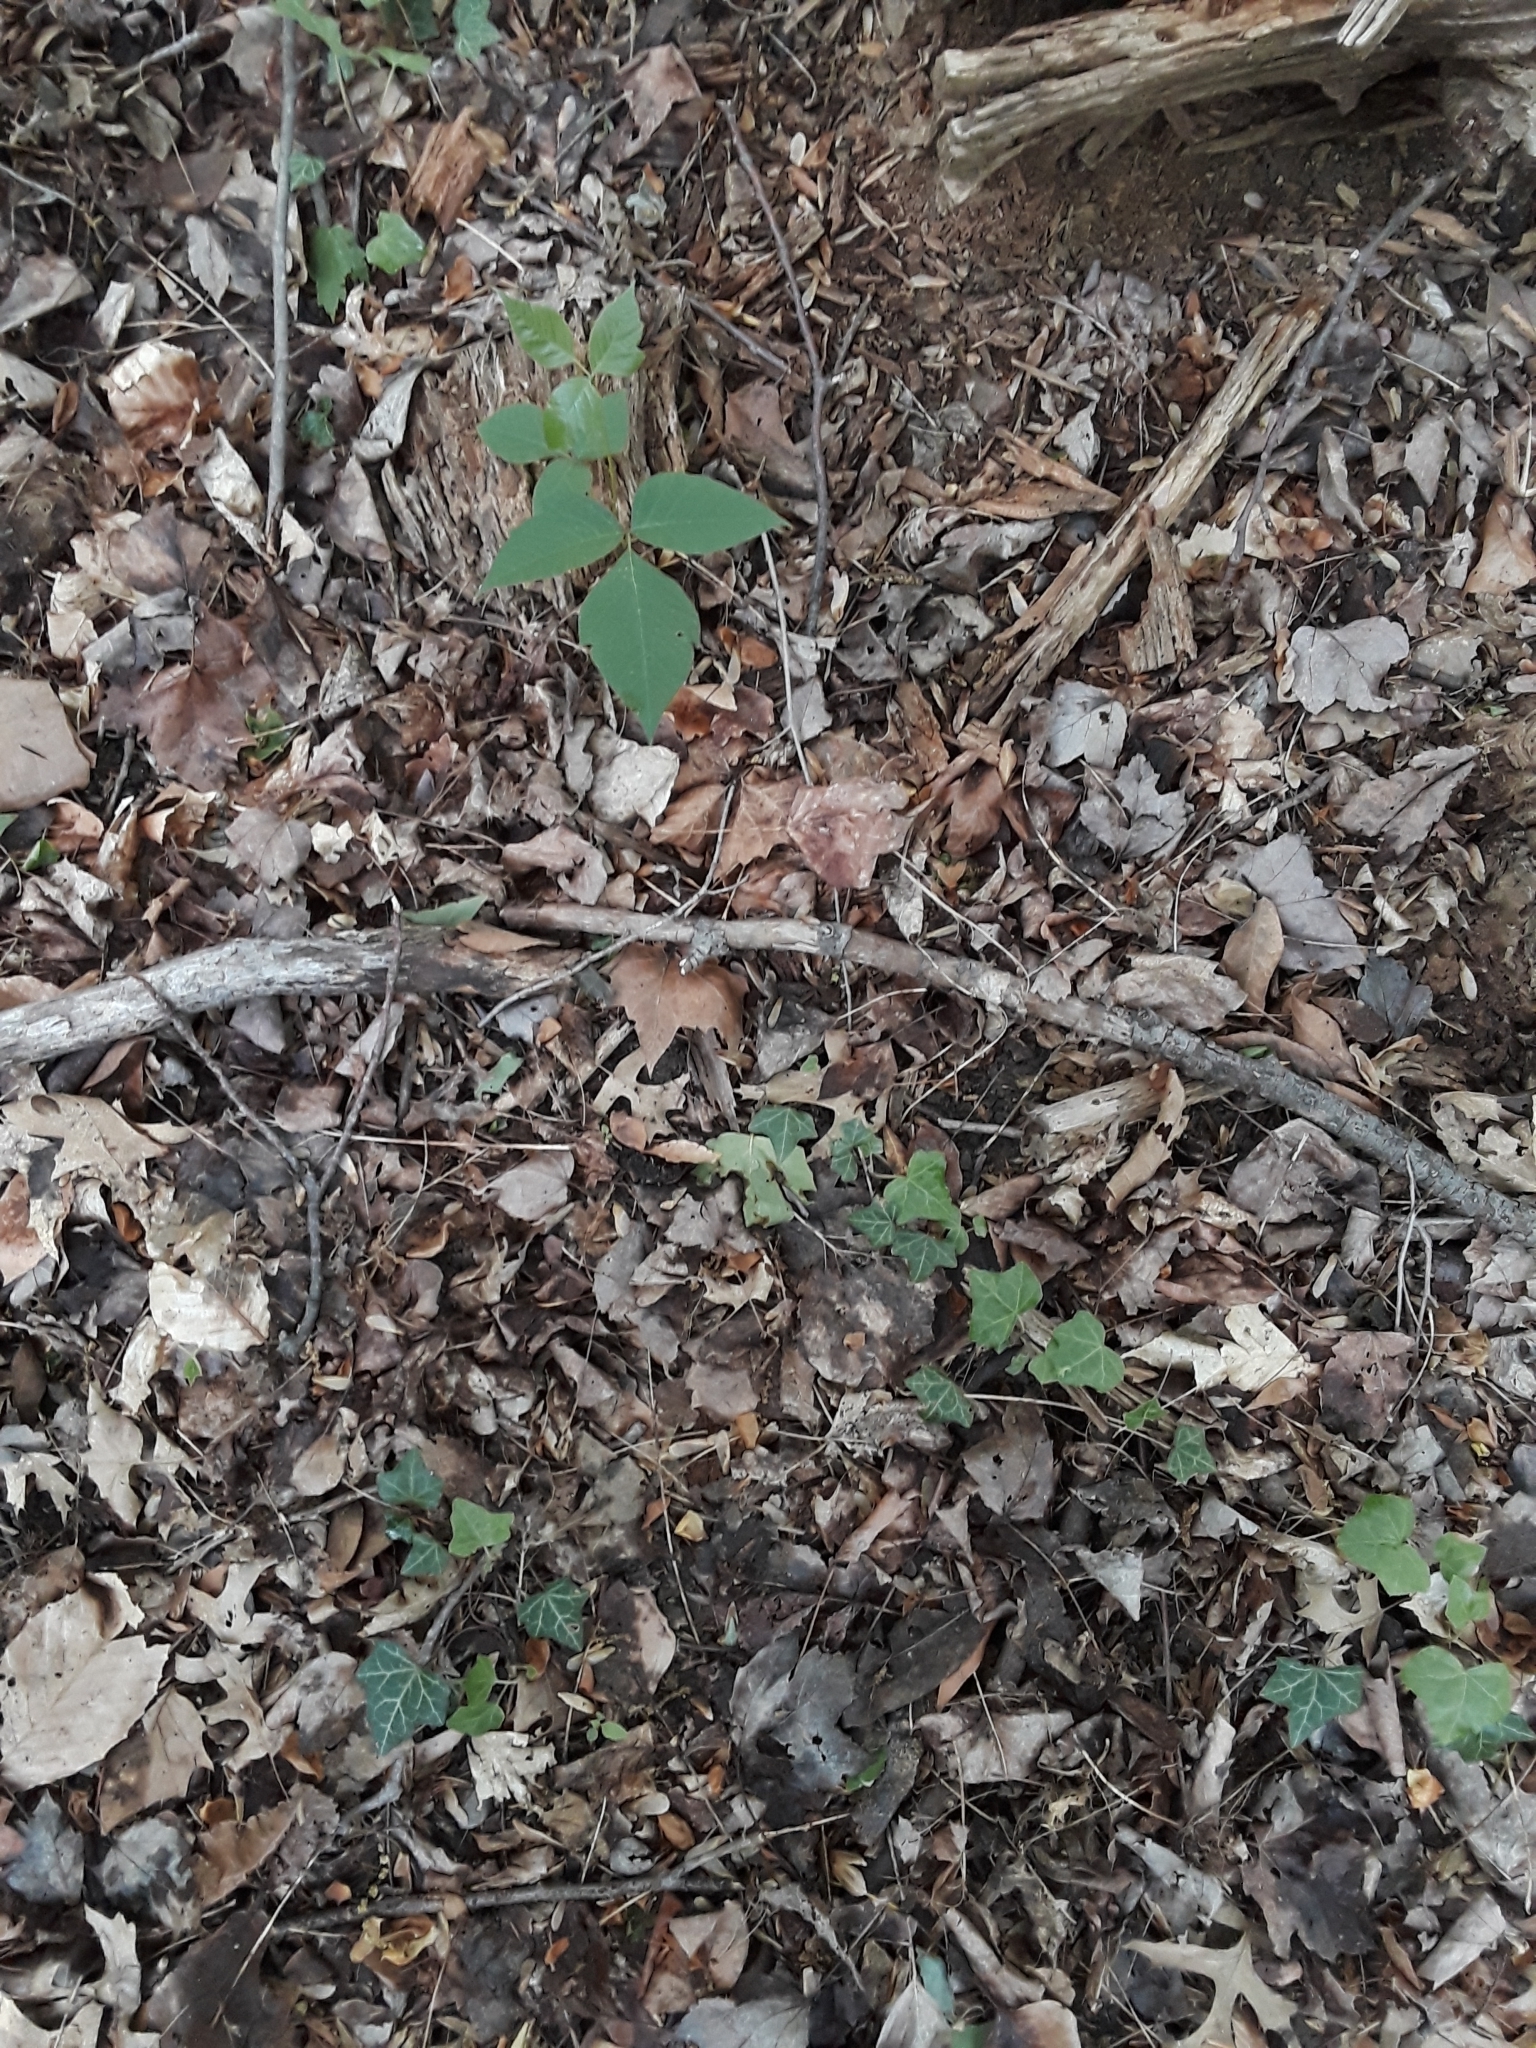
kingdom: Plantae
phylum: Tracheophyta
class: Magnoliopsida
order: Sapindales
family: Anacardiaceae
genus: Toxicodendron
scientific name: Toxicodendron radicans
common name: Poison ivy
